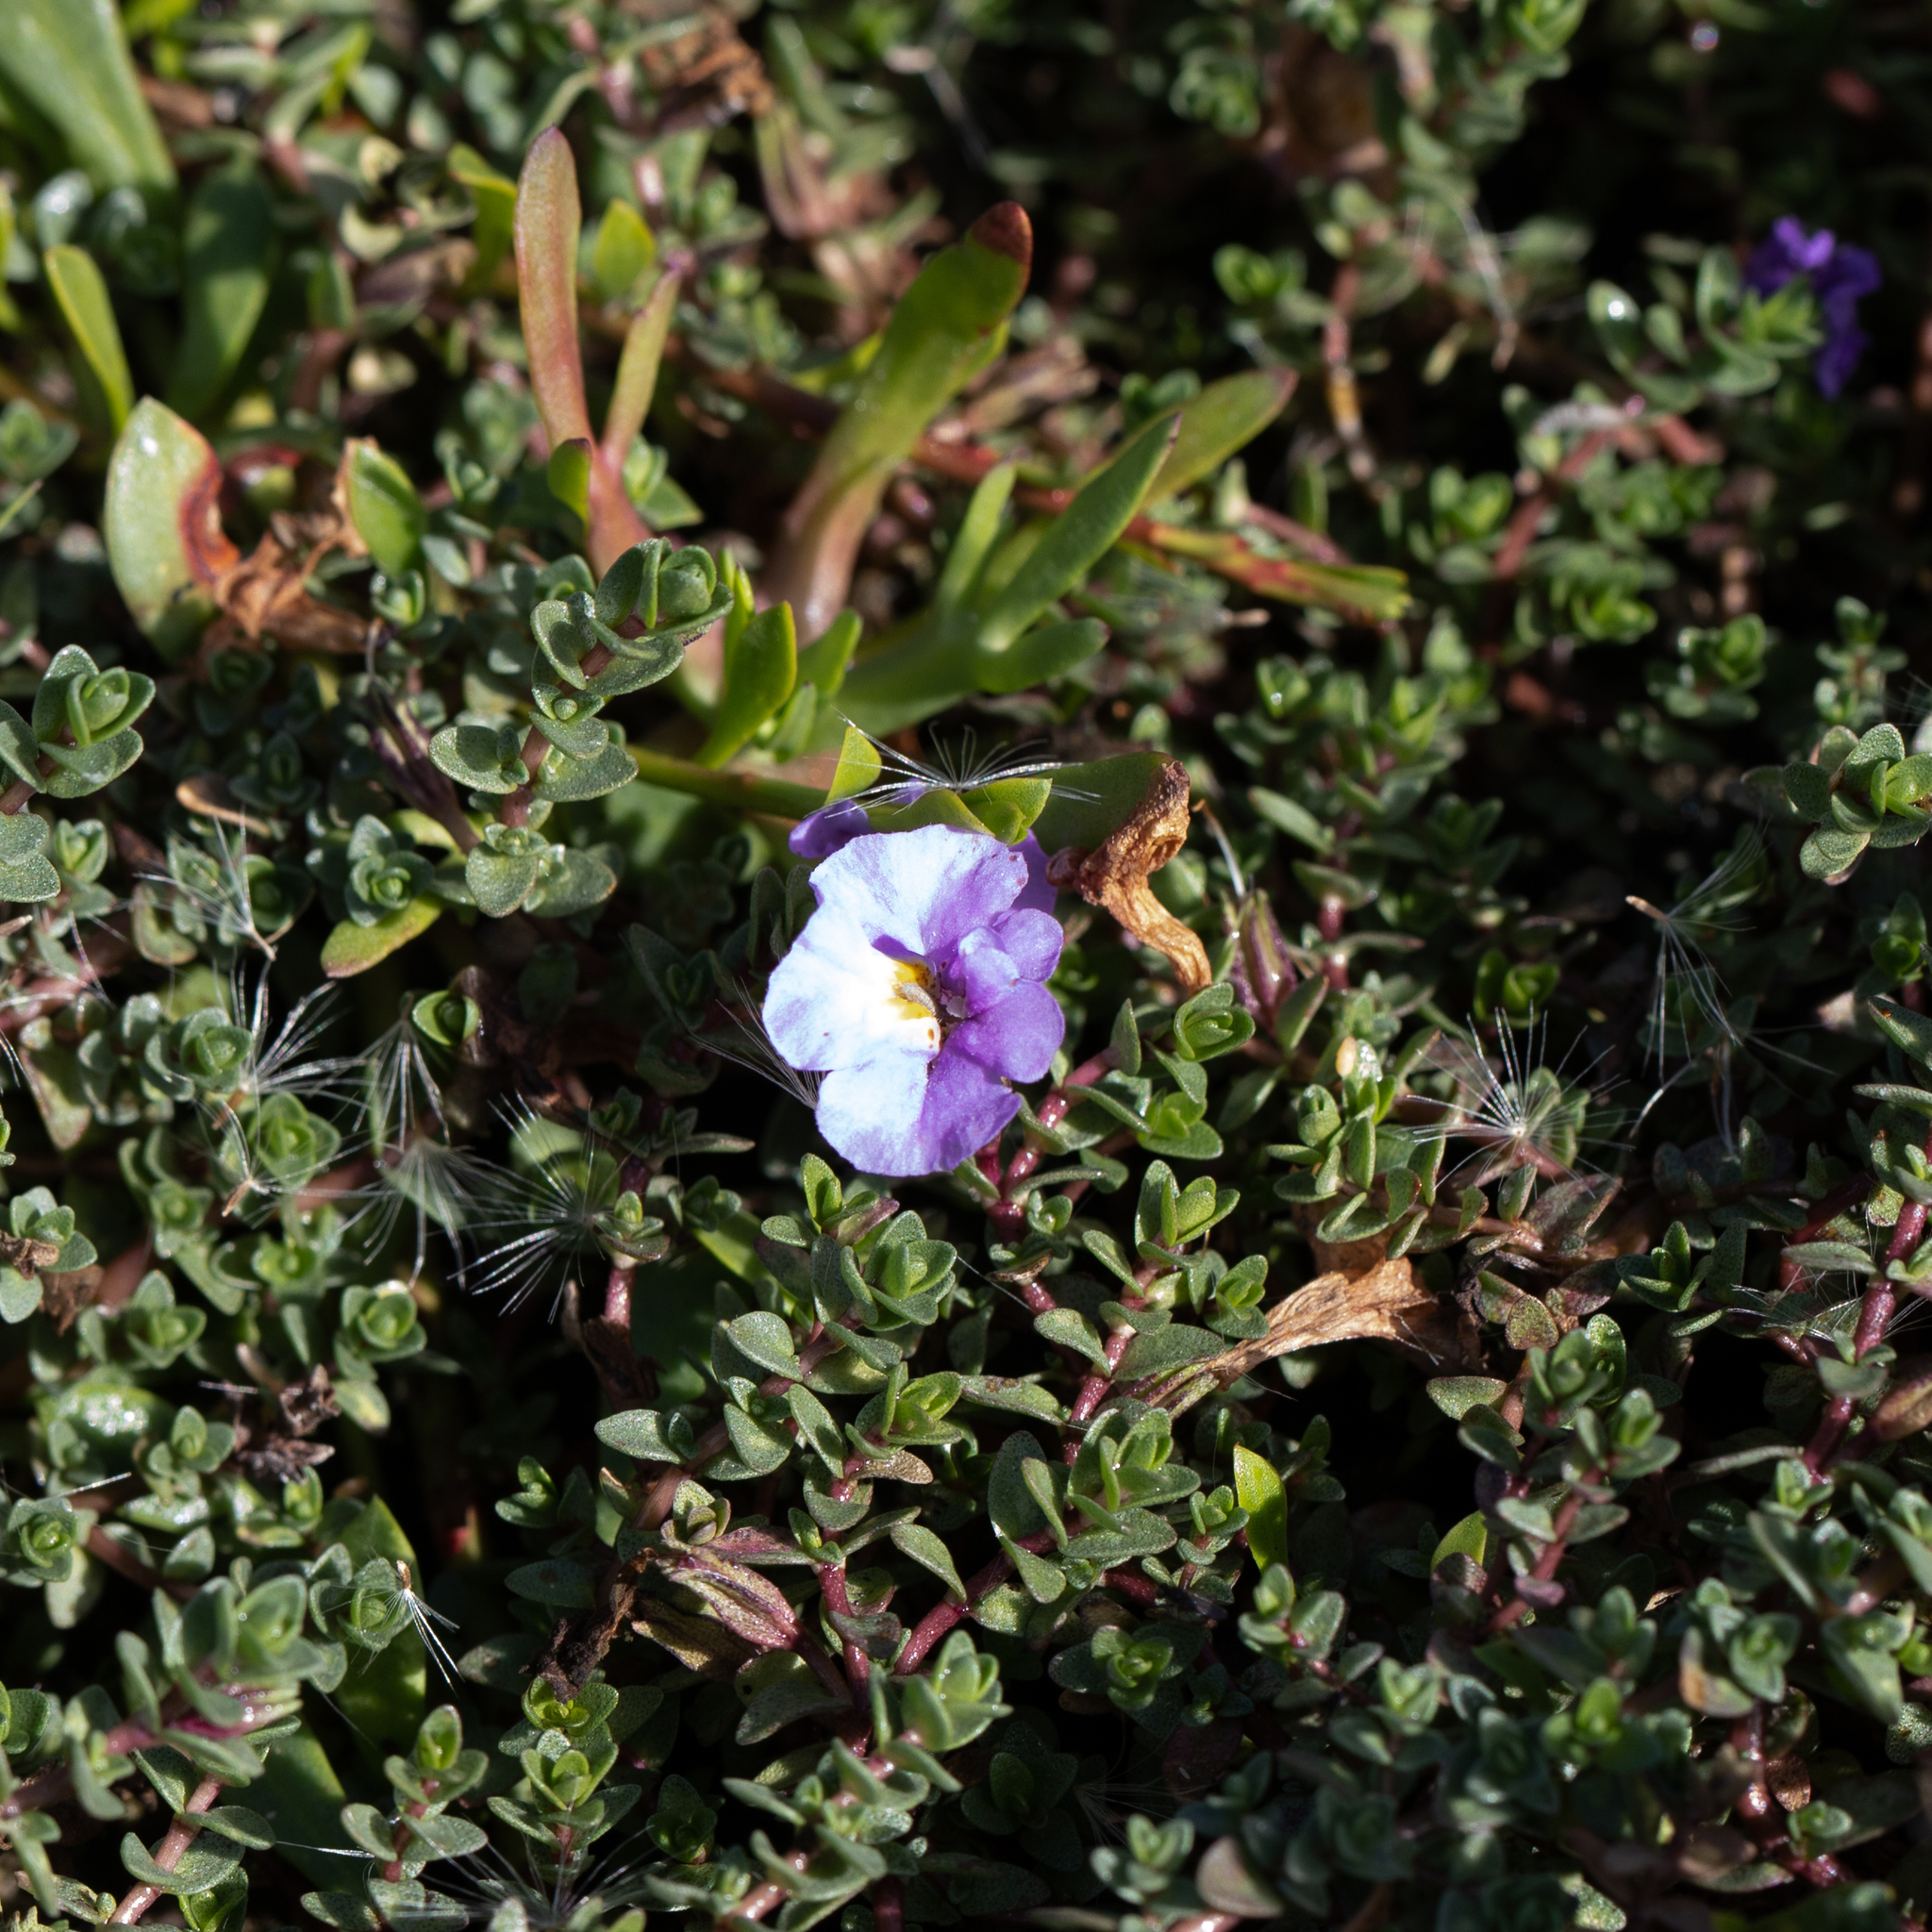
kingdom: Plantae
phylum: Tracheophyta
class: Magnoliopsida
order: Lamiales
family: Phrymaceae
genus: Thyridia
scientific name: Thyridia repens
